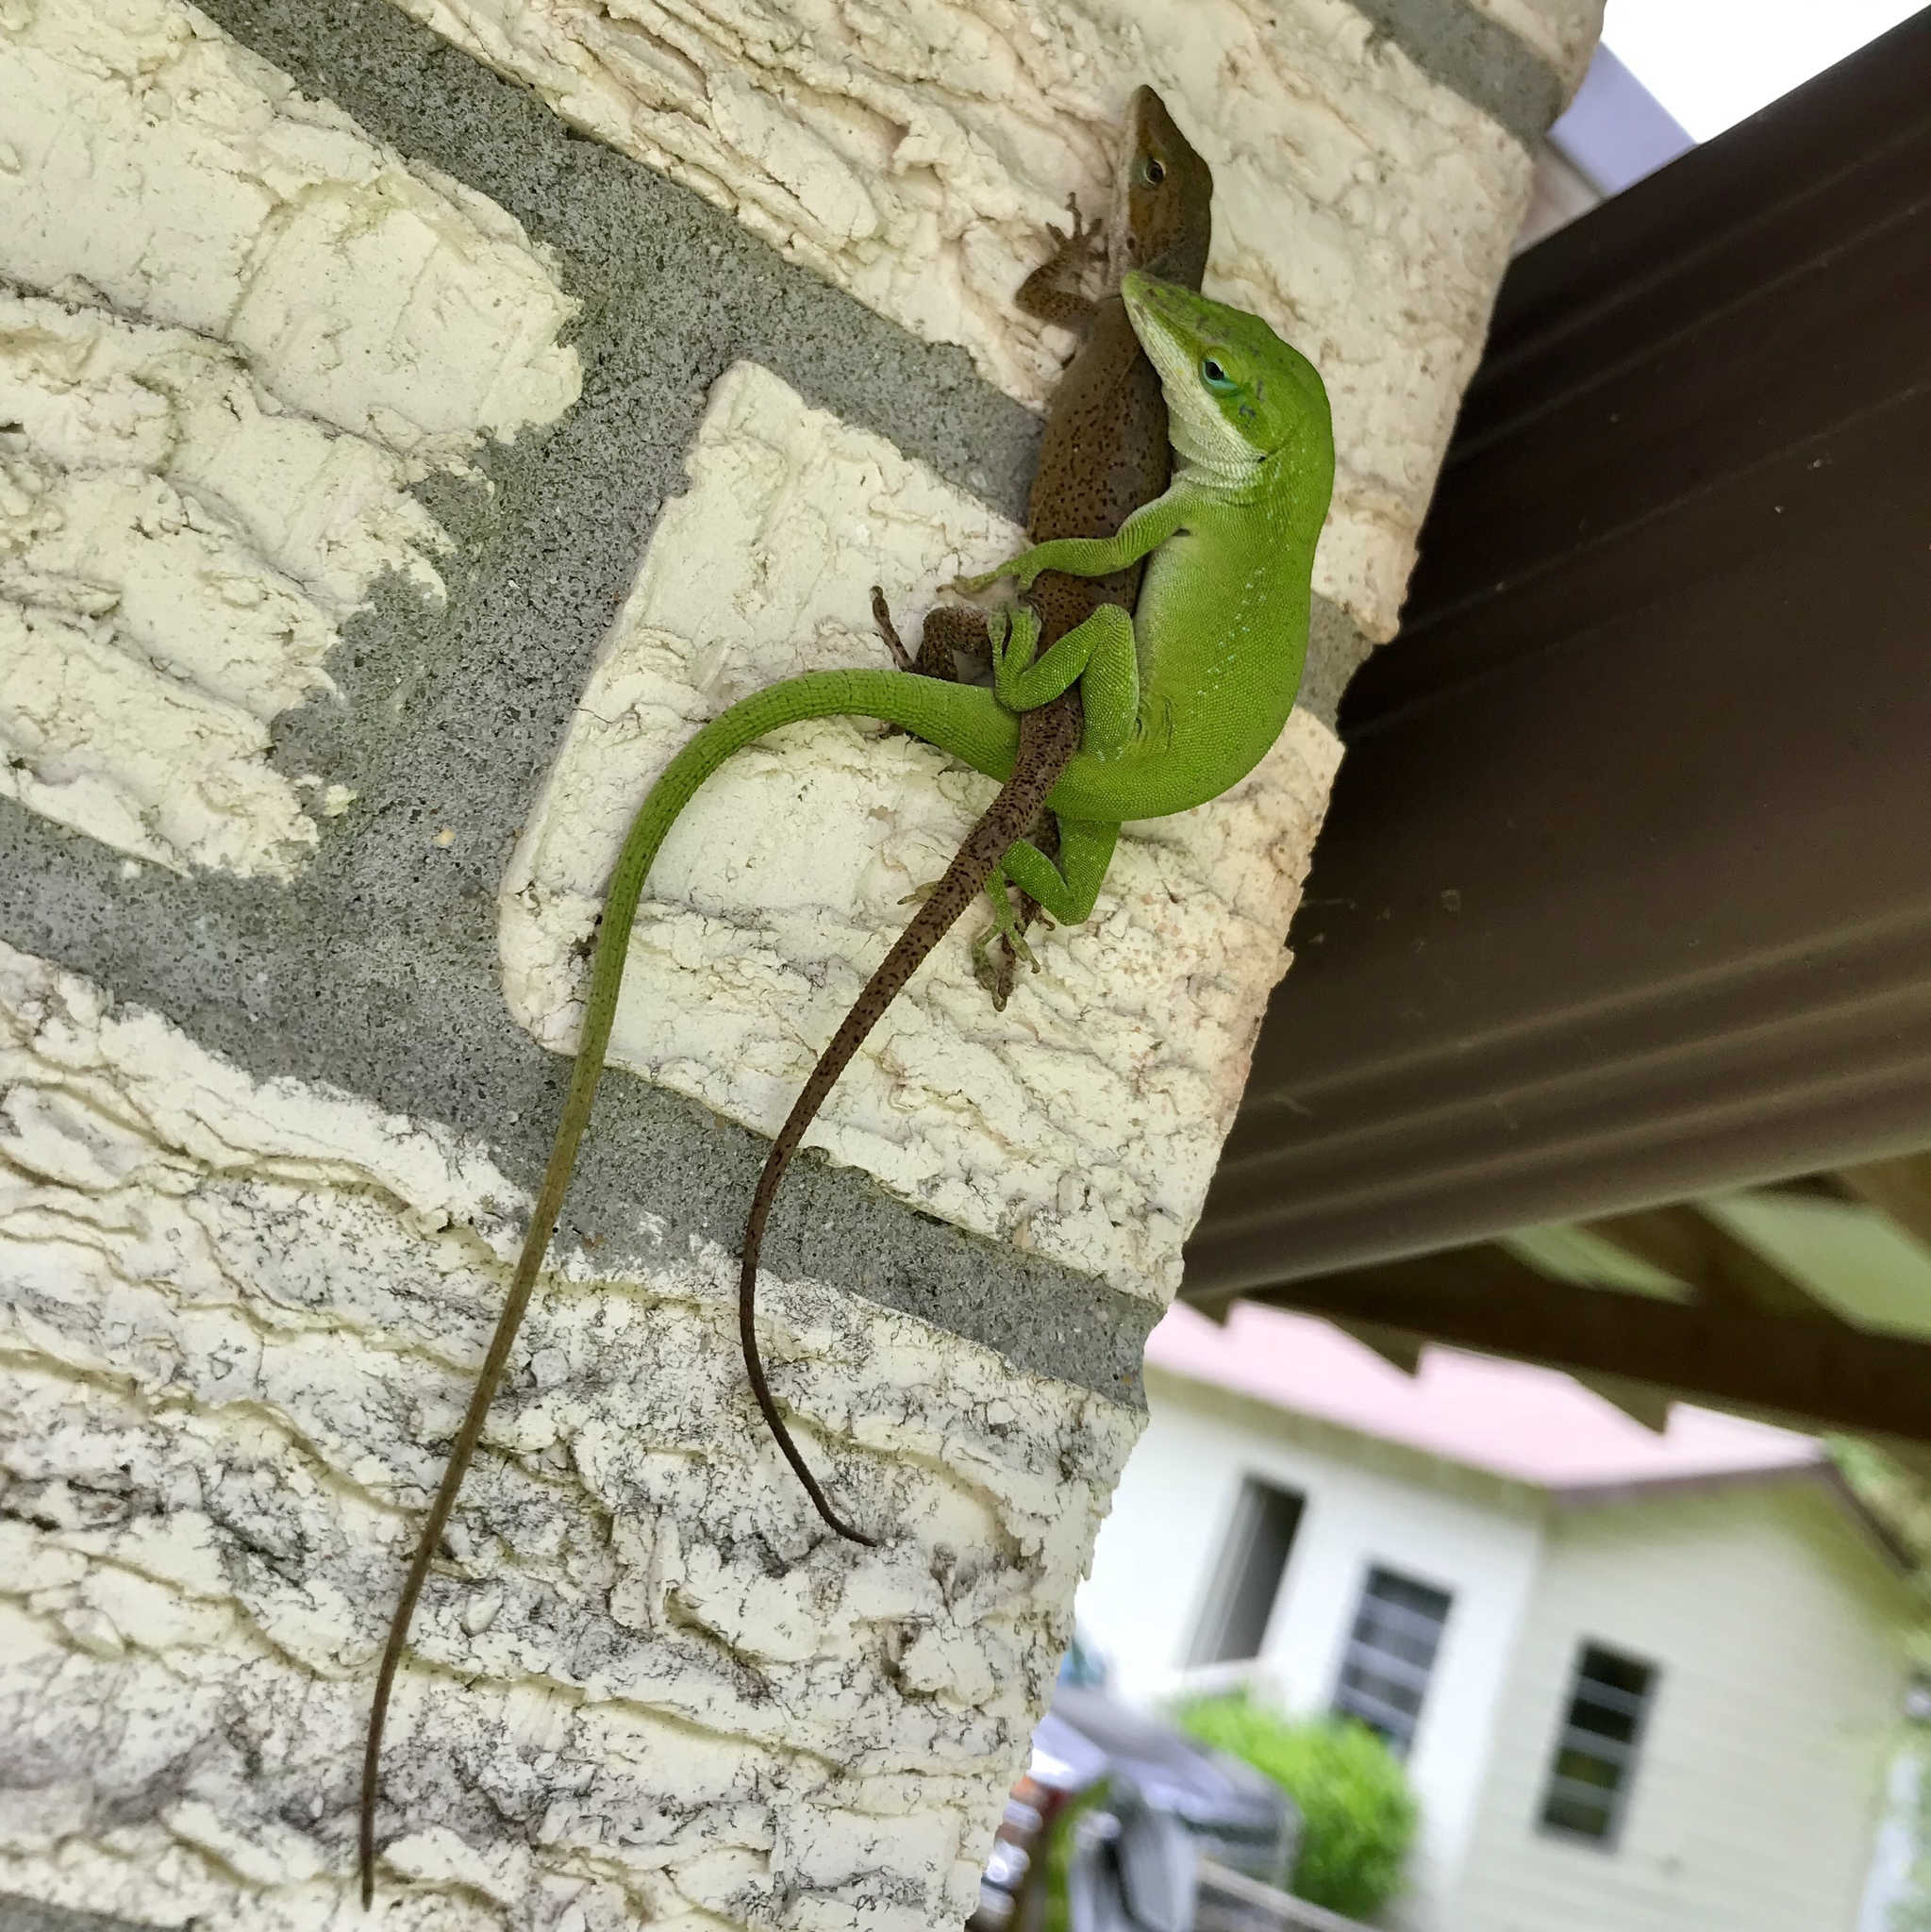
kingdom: Animalia
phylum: Chordata
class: Squamata
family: Dactyloidae
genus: Anolis
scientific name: Anolis carolinensis
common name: Green anole
